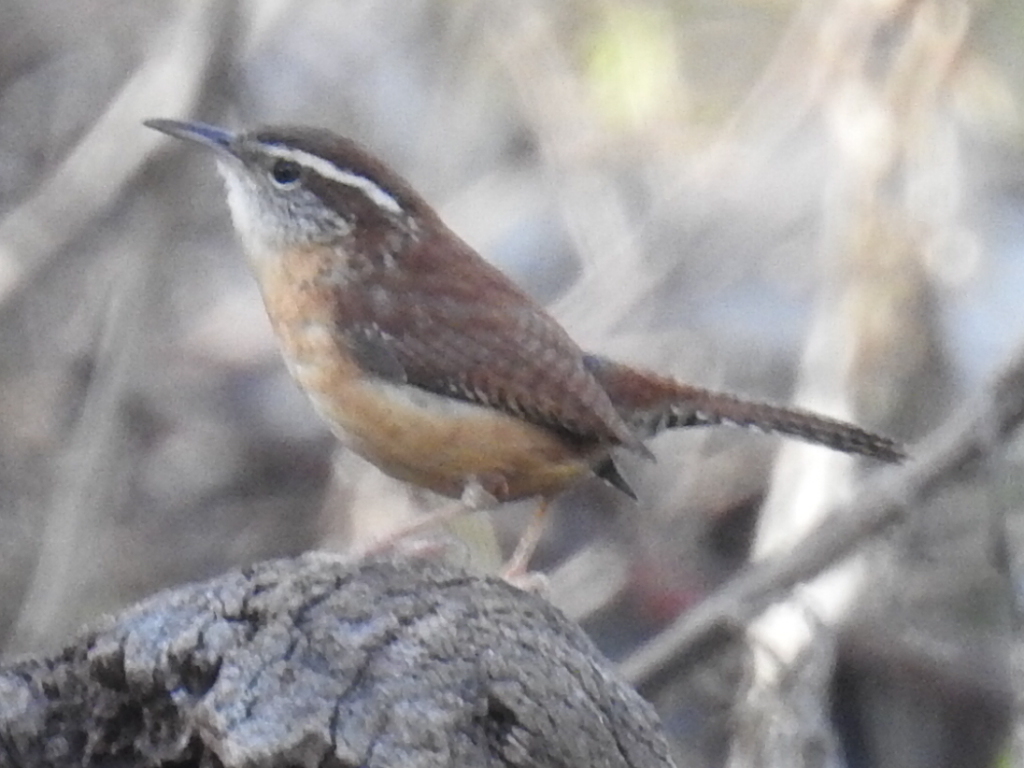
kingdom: Animalia
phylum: Chordata
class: Aves
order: Passeriformes
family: Troglodytidae
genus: Thryothorus
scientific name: Thryothorus ludovicianus
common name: Carolina wren
